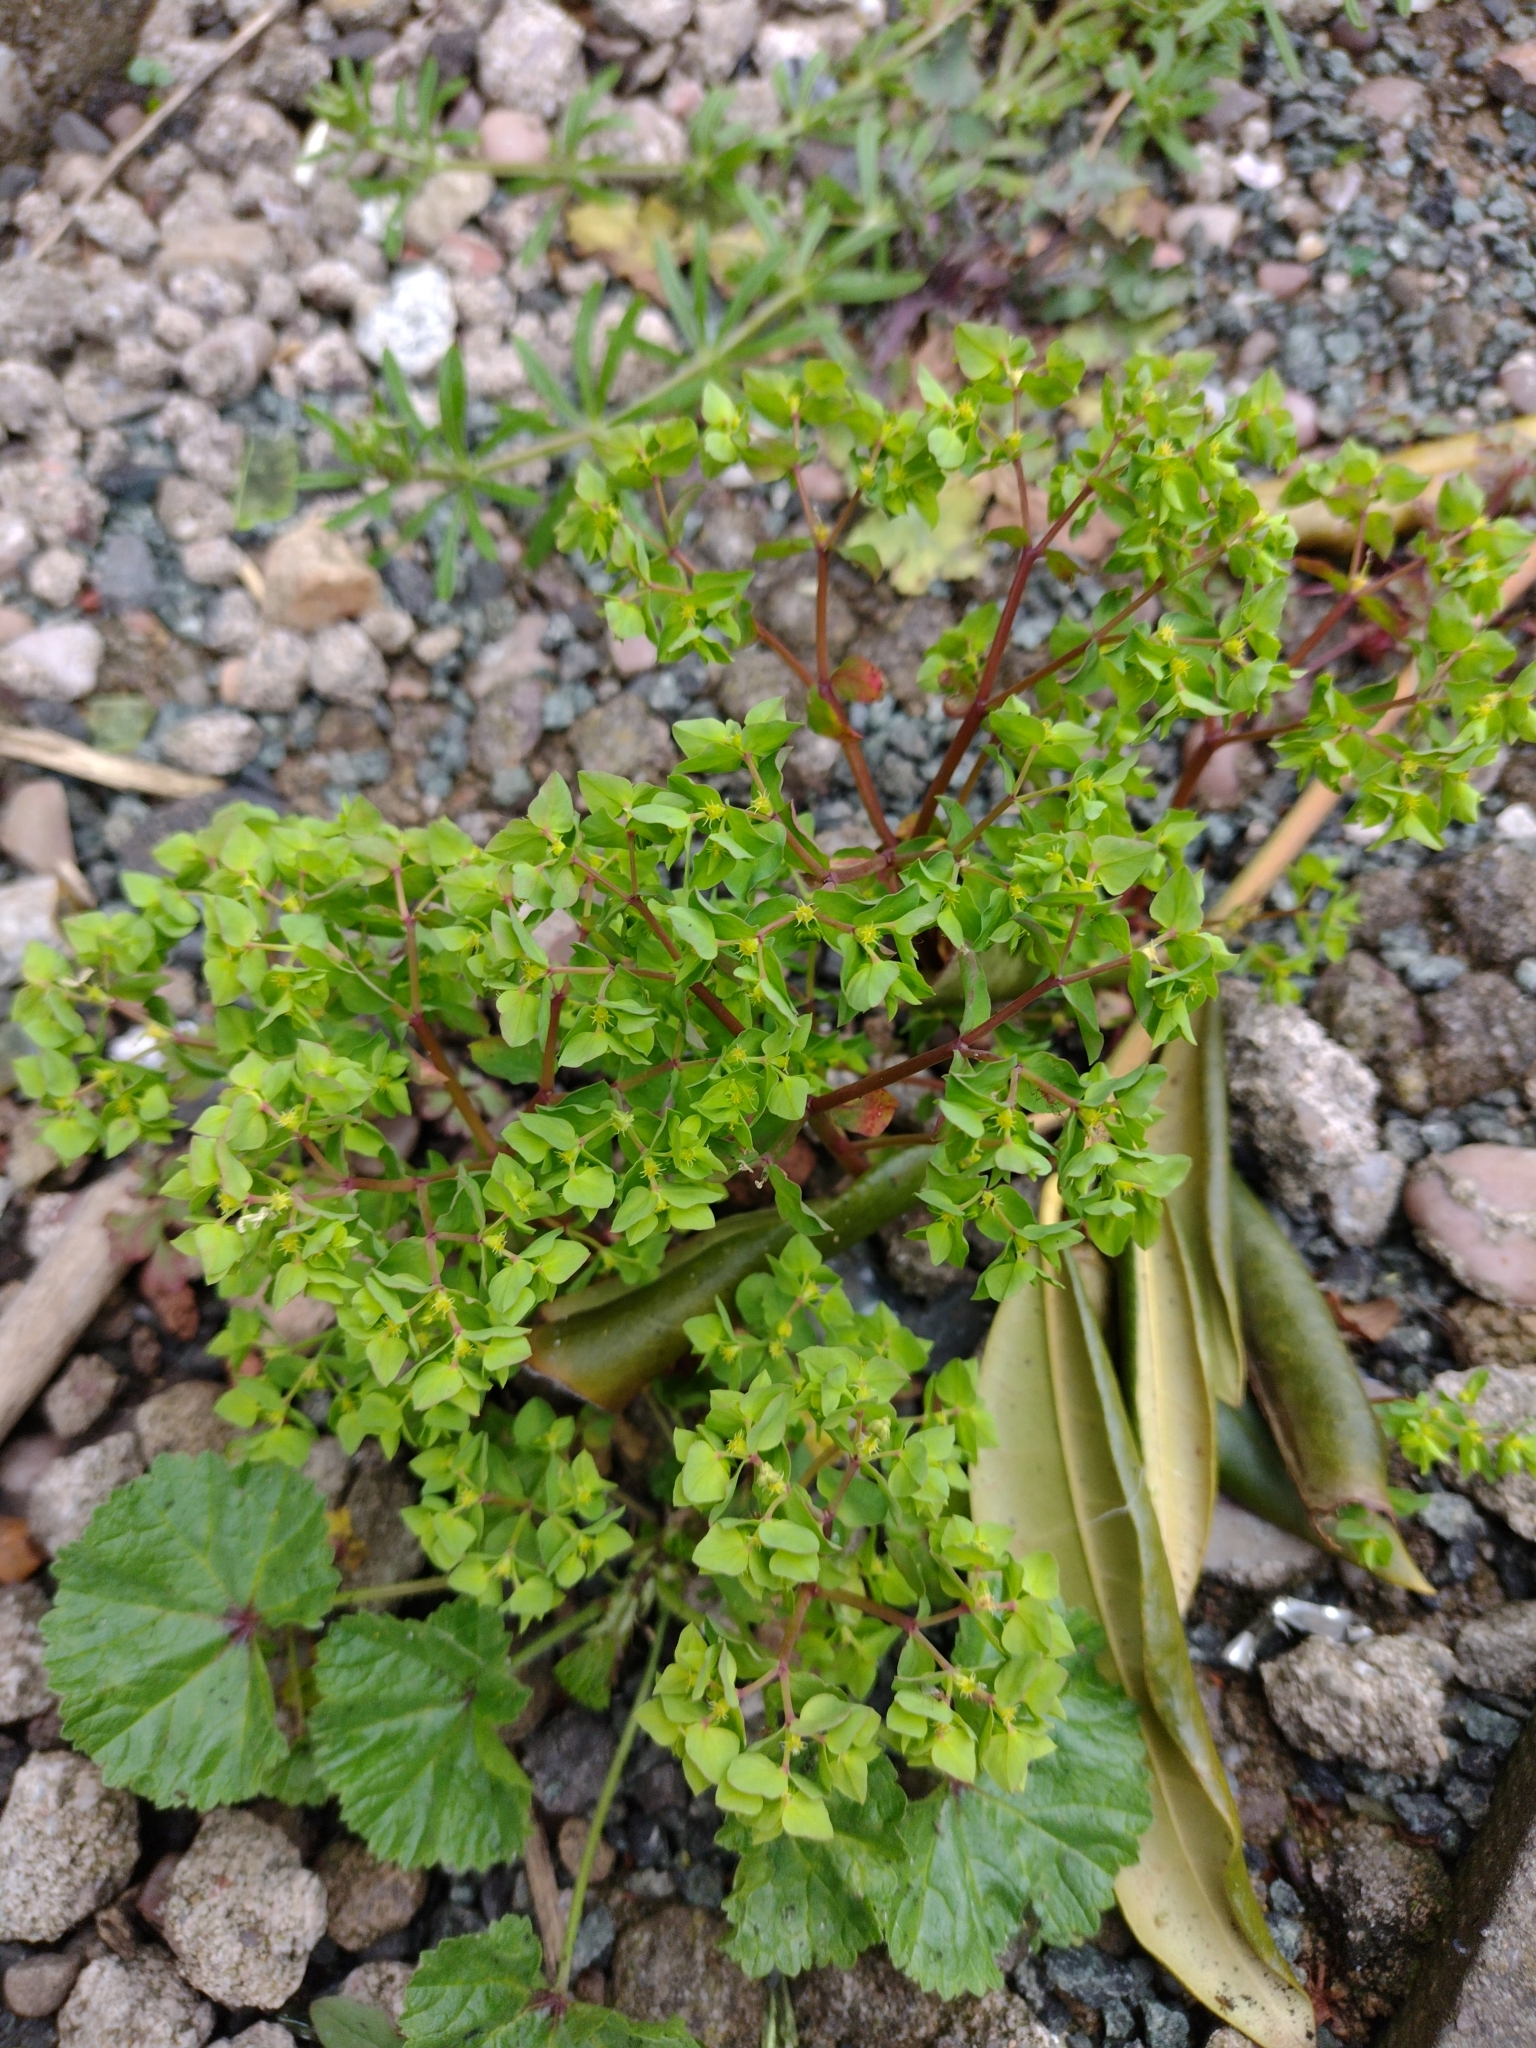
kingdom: Plantae
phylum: Tracheophyta
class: Magnoliopsida
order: Malpighiales
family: Euphorbiaceae
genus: Euphorbia
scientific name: Euphorbia peplus
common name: Petty spurge
